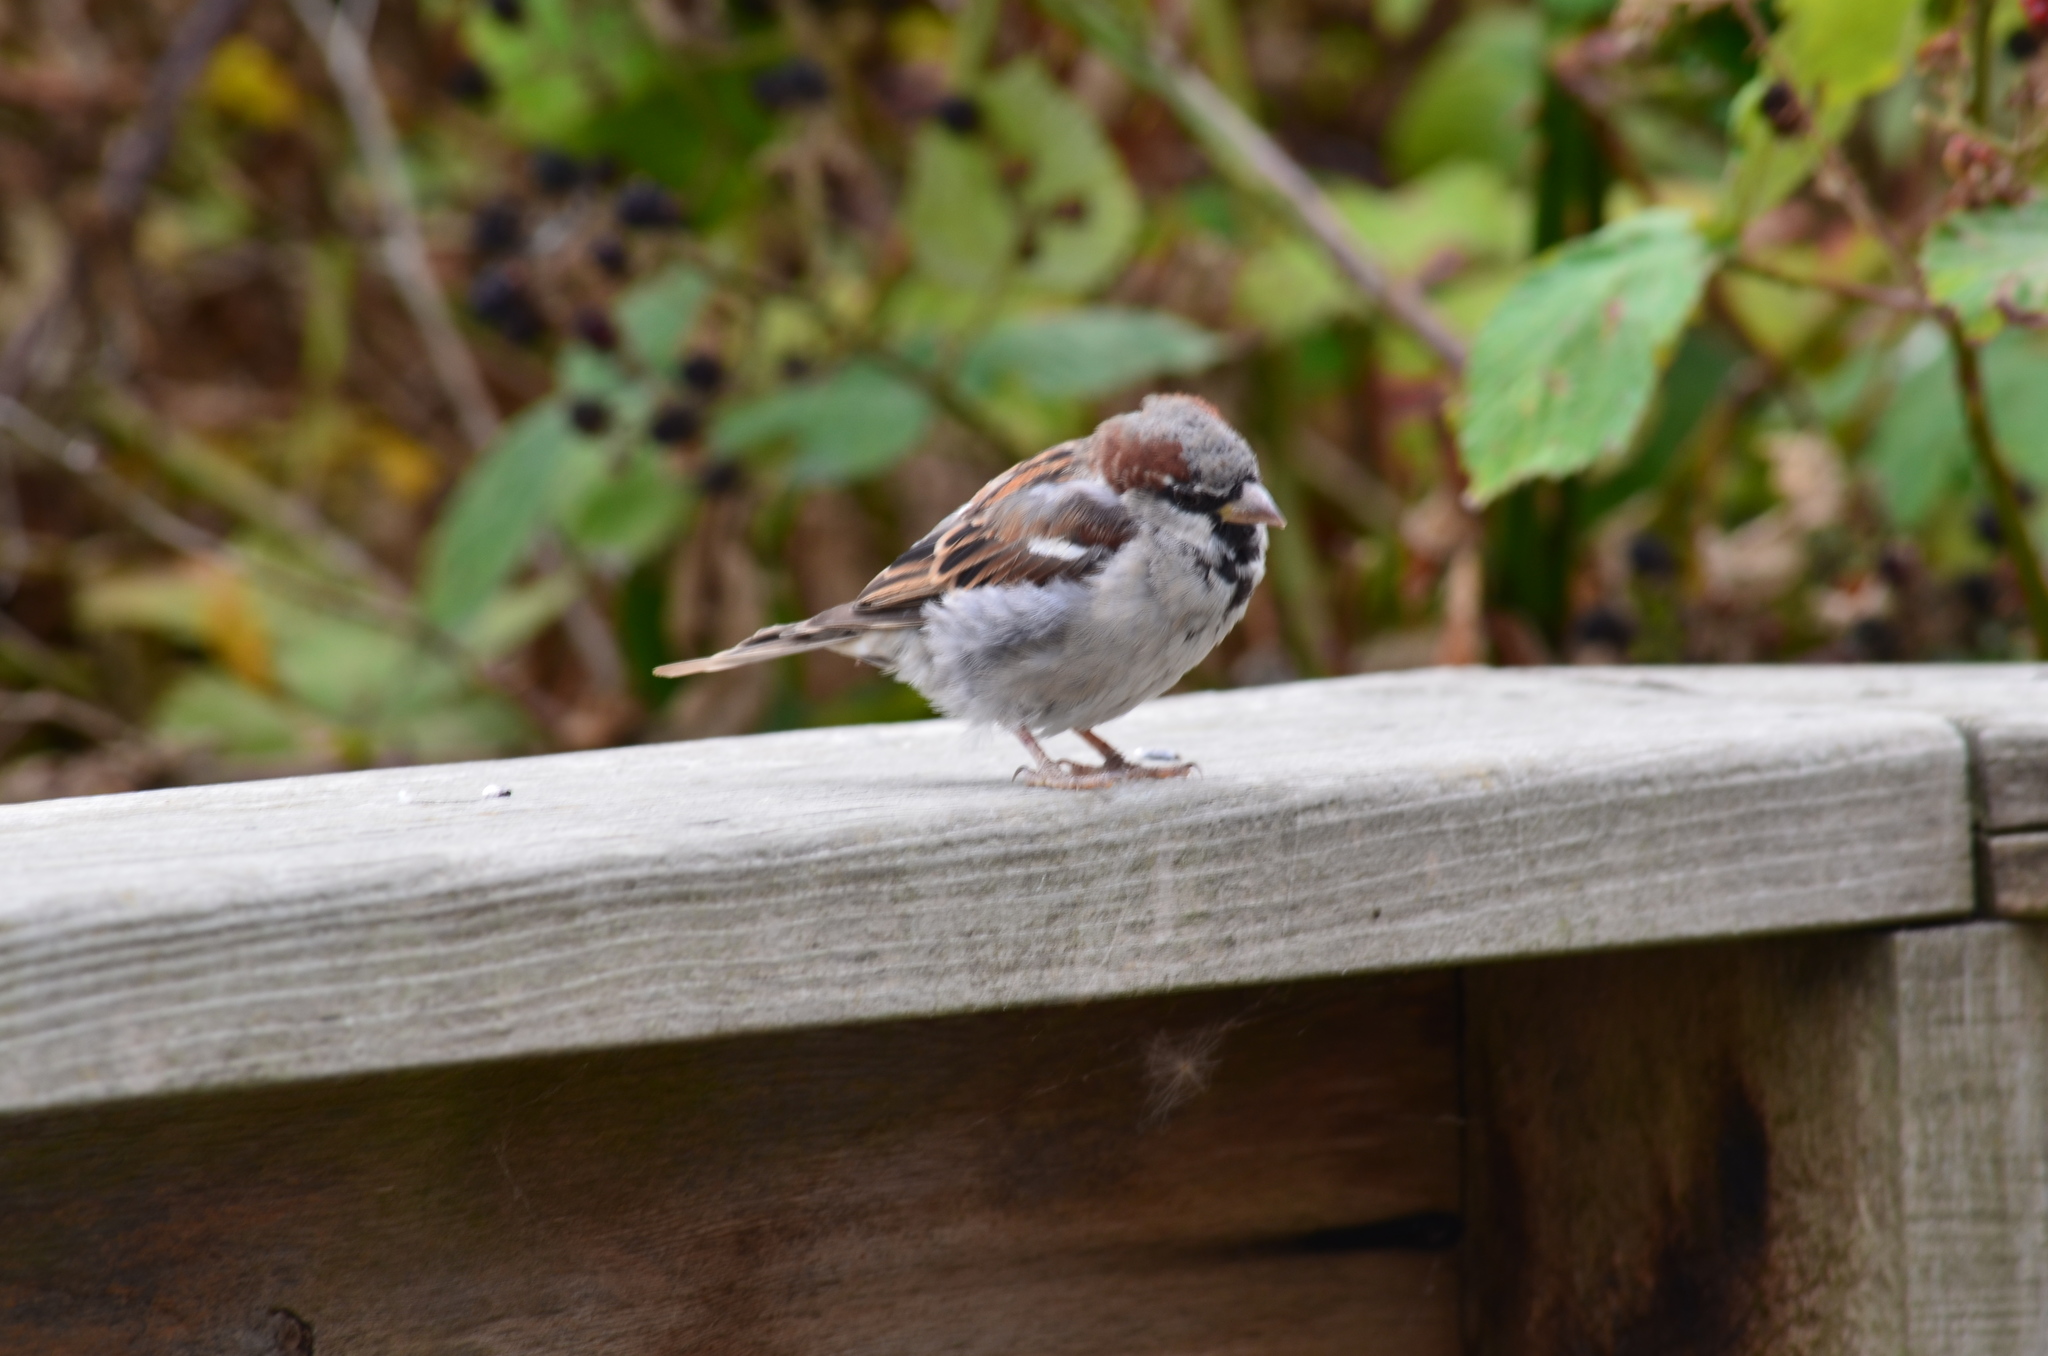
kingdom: Animalia
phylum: Chordata
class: Aves
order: Passeriformes
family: Passeridae
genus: Passer
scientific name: Passer domesticus
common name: House sparrow
